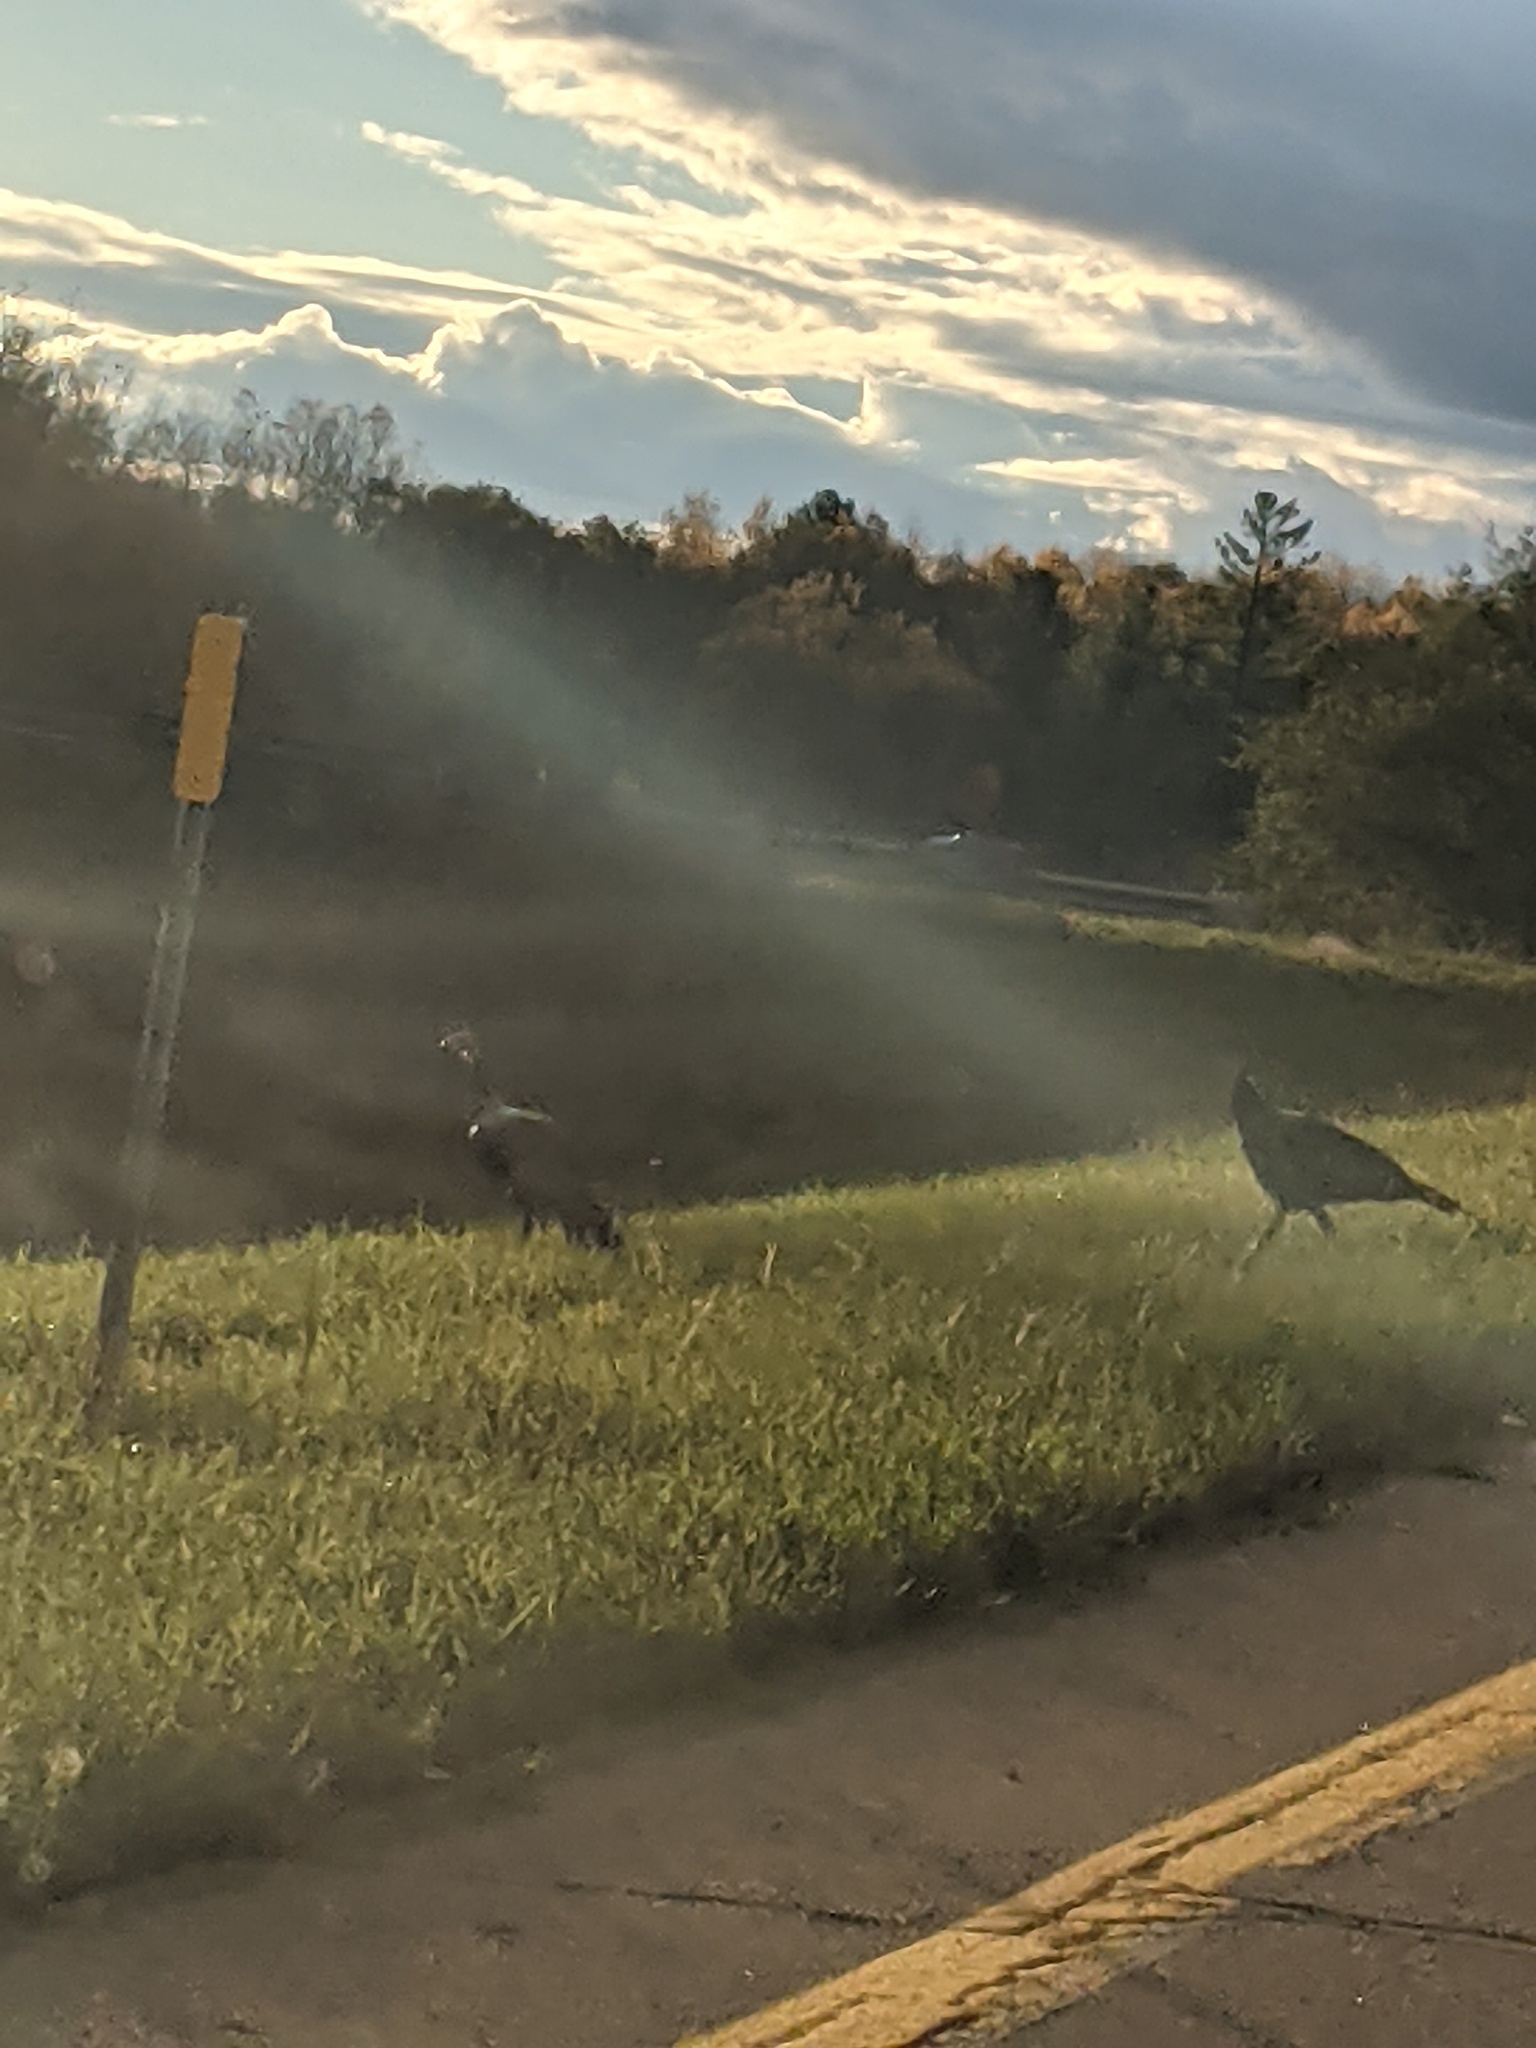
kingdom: Animalia
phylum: Chordata
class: Aves
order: Galliformes
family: Phasianidae
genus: Meleagris
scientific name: Meleagris gallopavo
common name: Wild turkey
